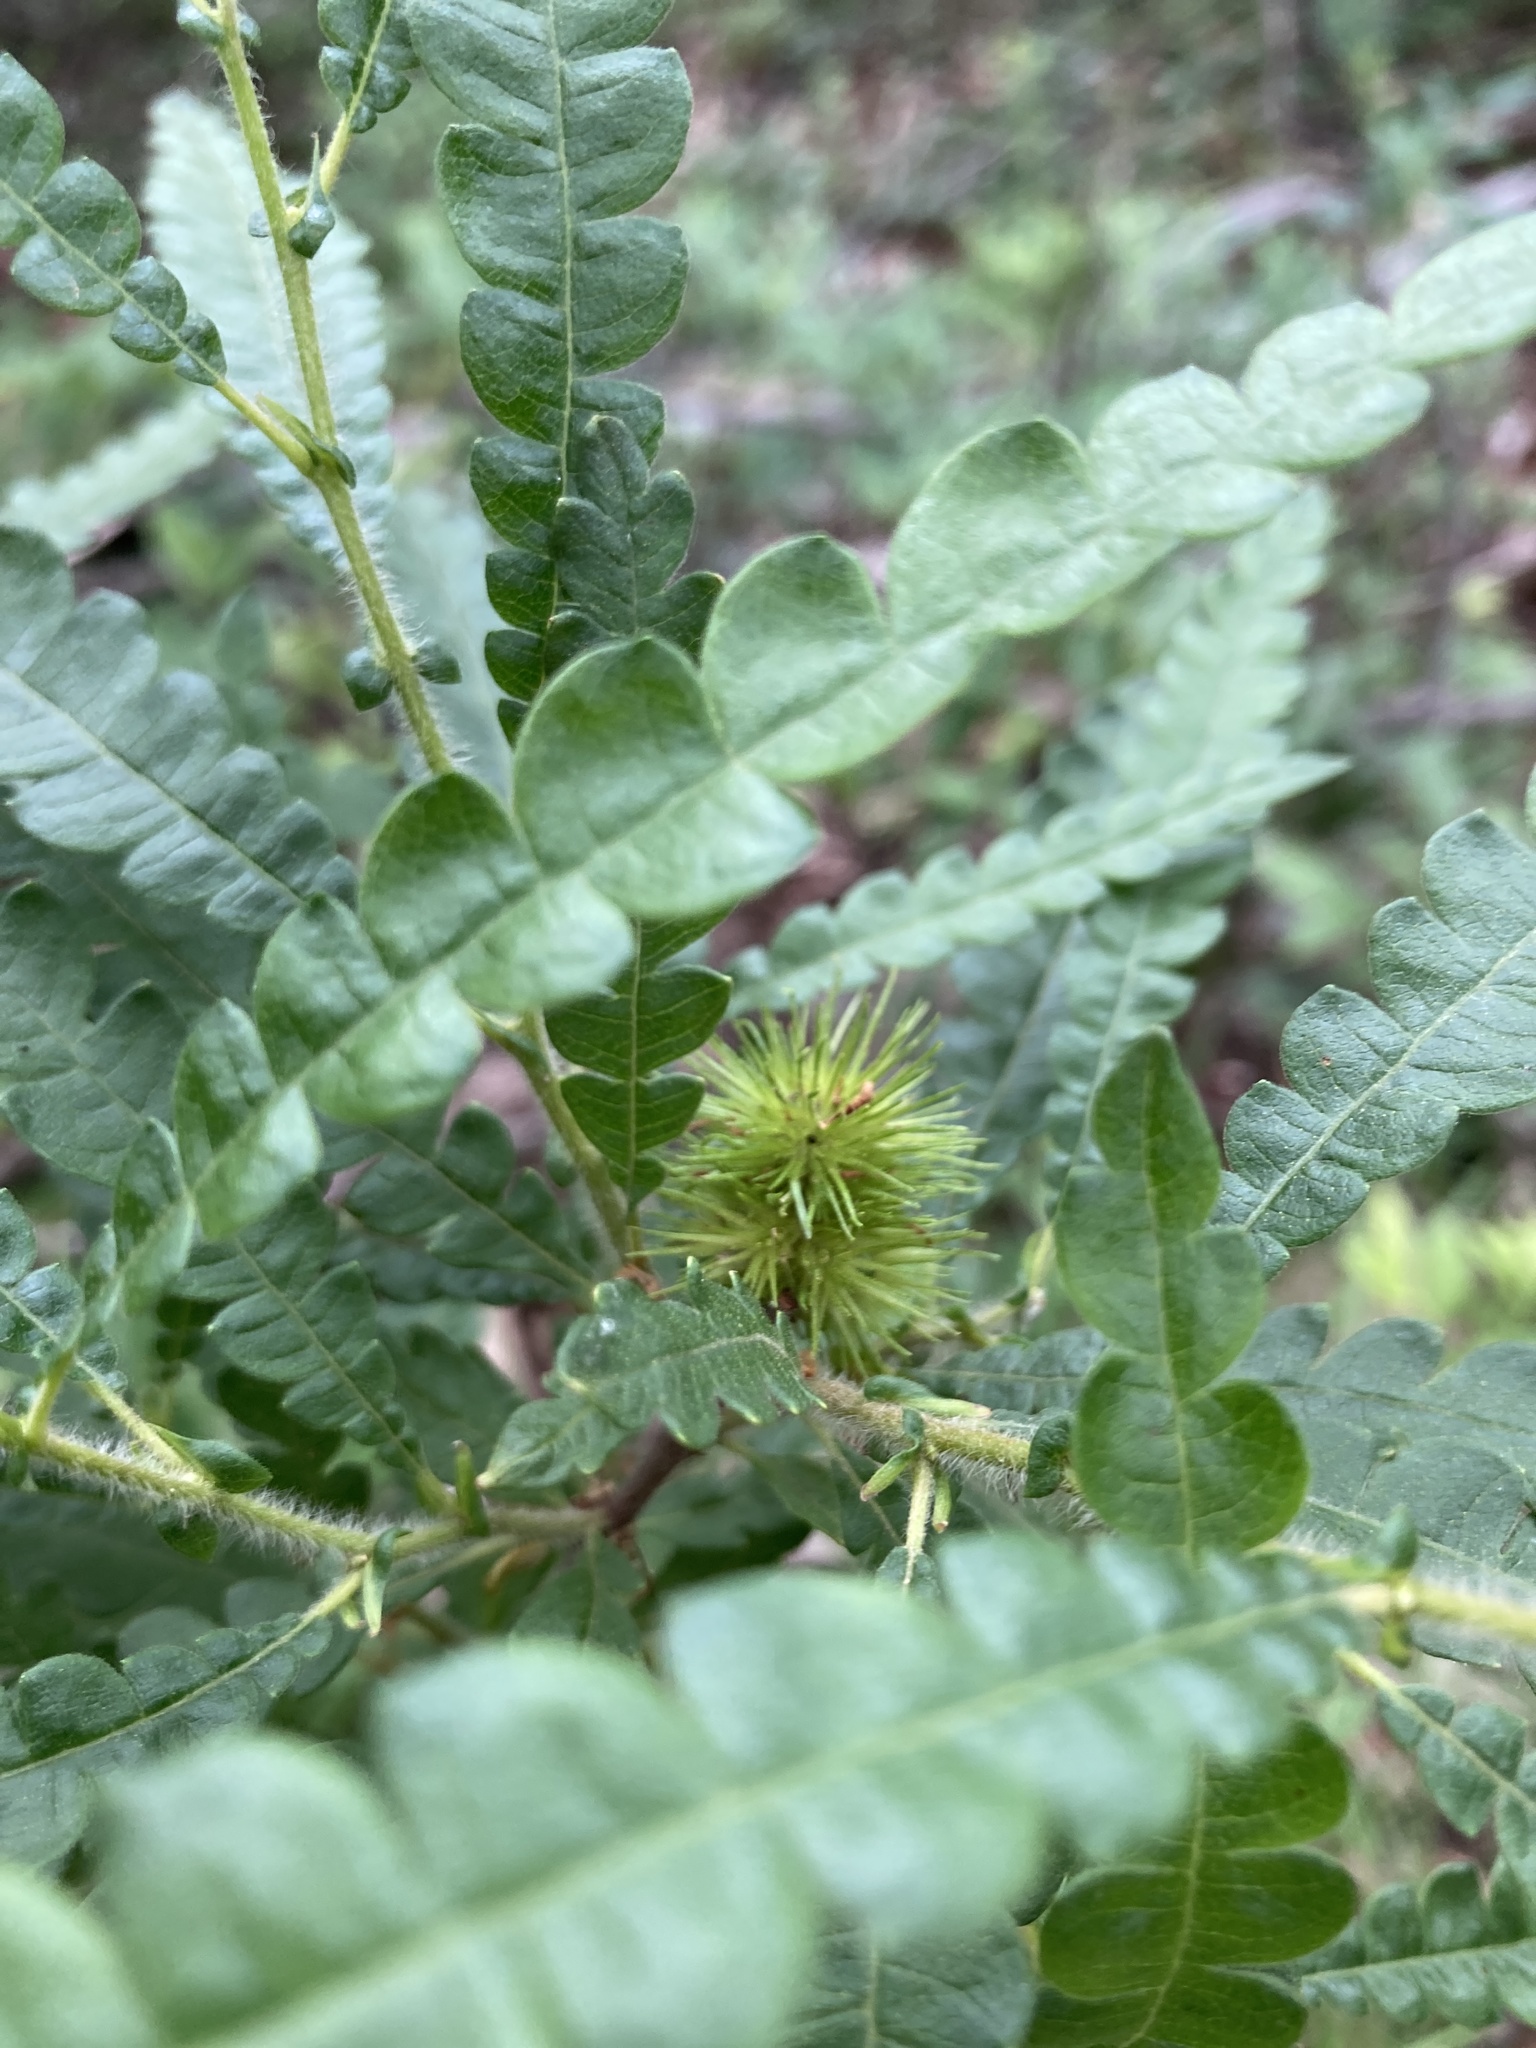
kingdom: Plantae
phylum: Tracheophyta
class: Magnoliopsida
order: Fagales
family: Myricaceae
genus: Comptonia
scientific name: Comptonia peregrina
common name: Sweet-fern
